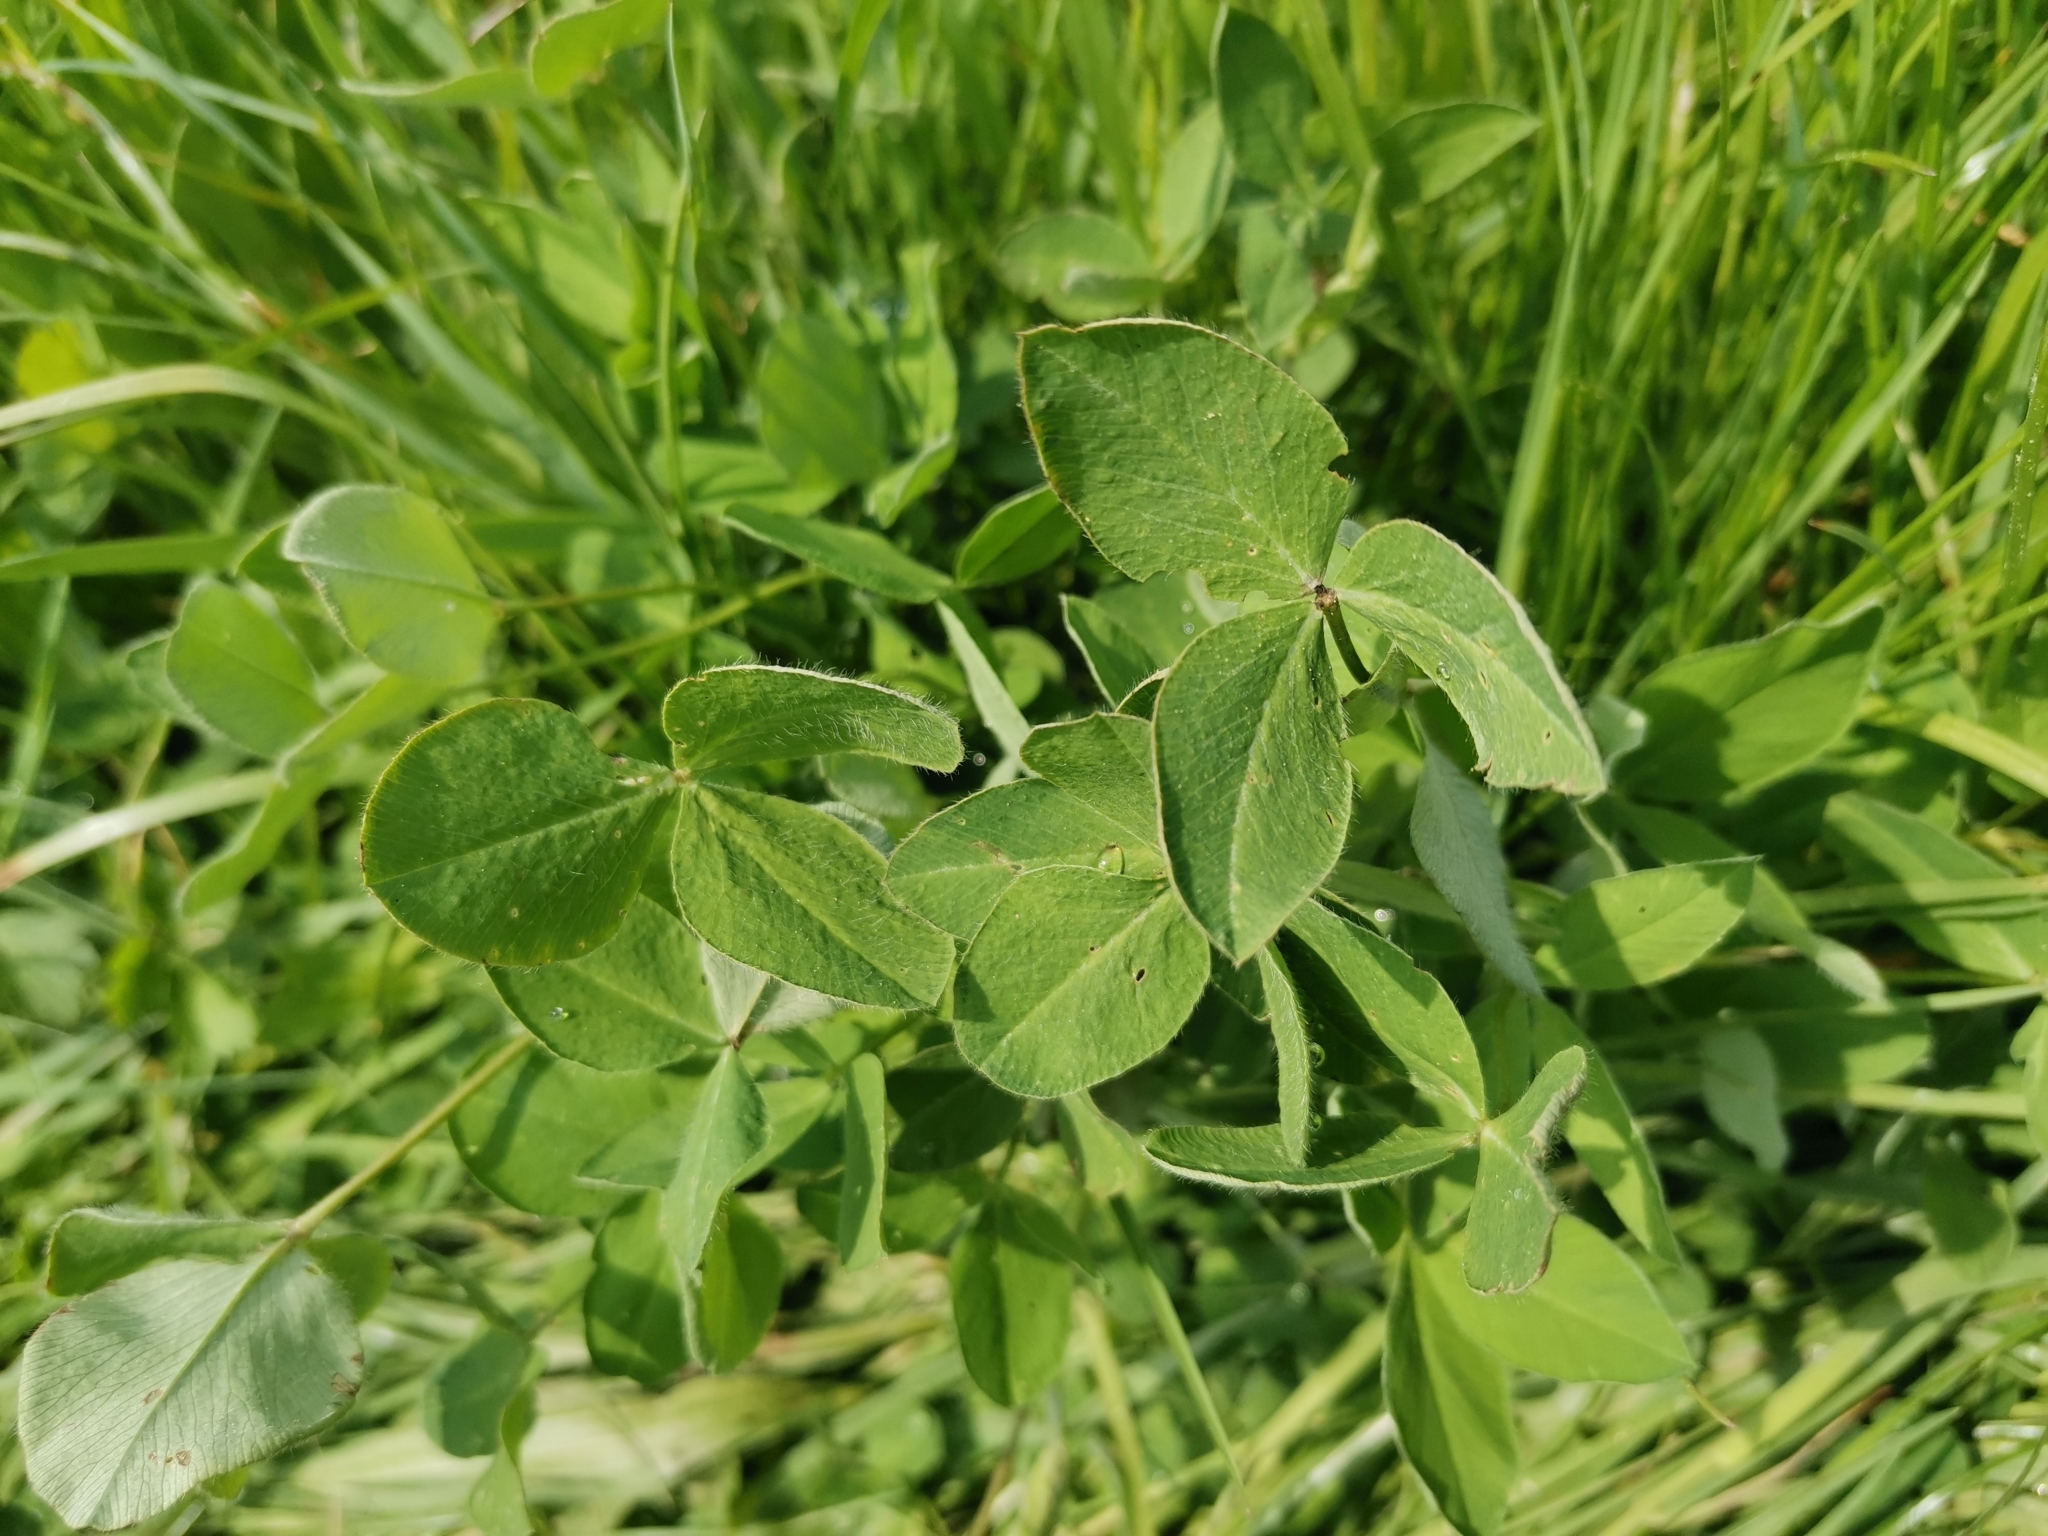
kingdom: Plantae
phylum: Tracheophyta
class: Magnoliopsida
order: Fabales
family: Fabaceae
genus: Trifolium
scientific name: Trifolium pratense
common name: Red clover
